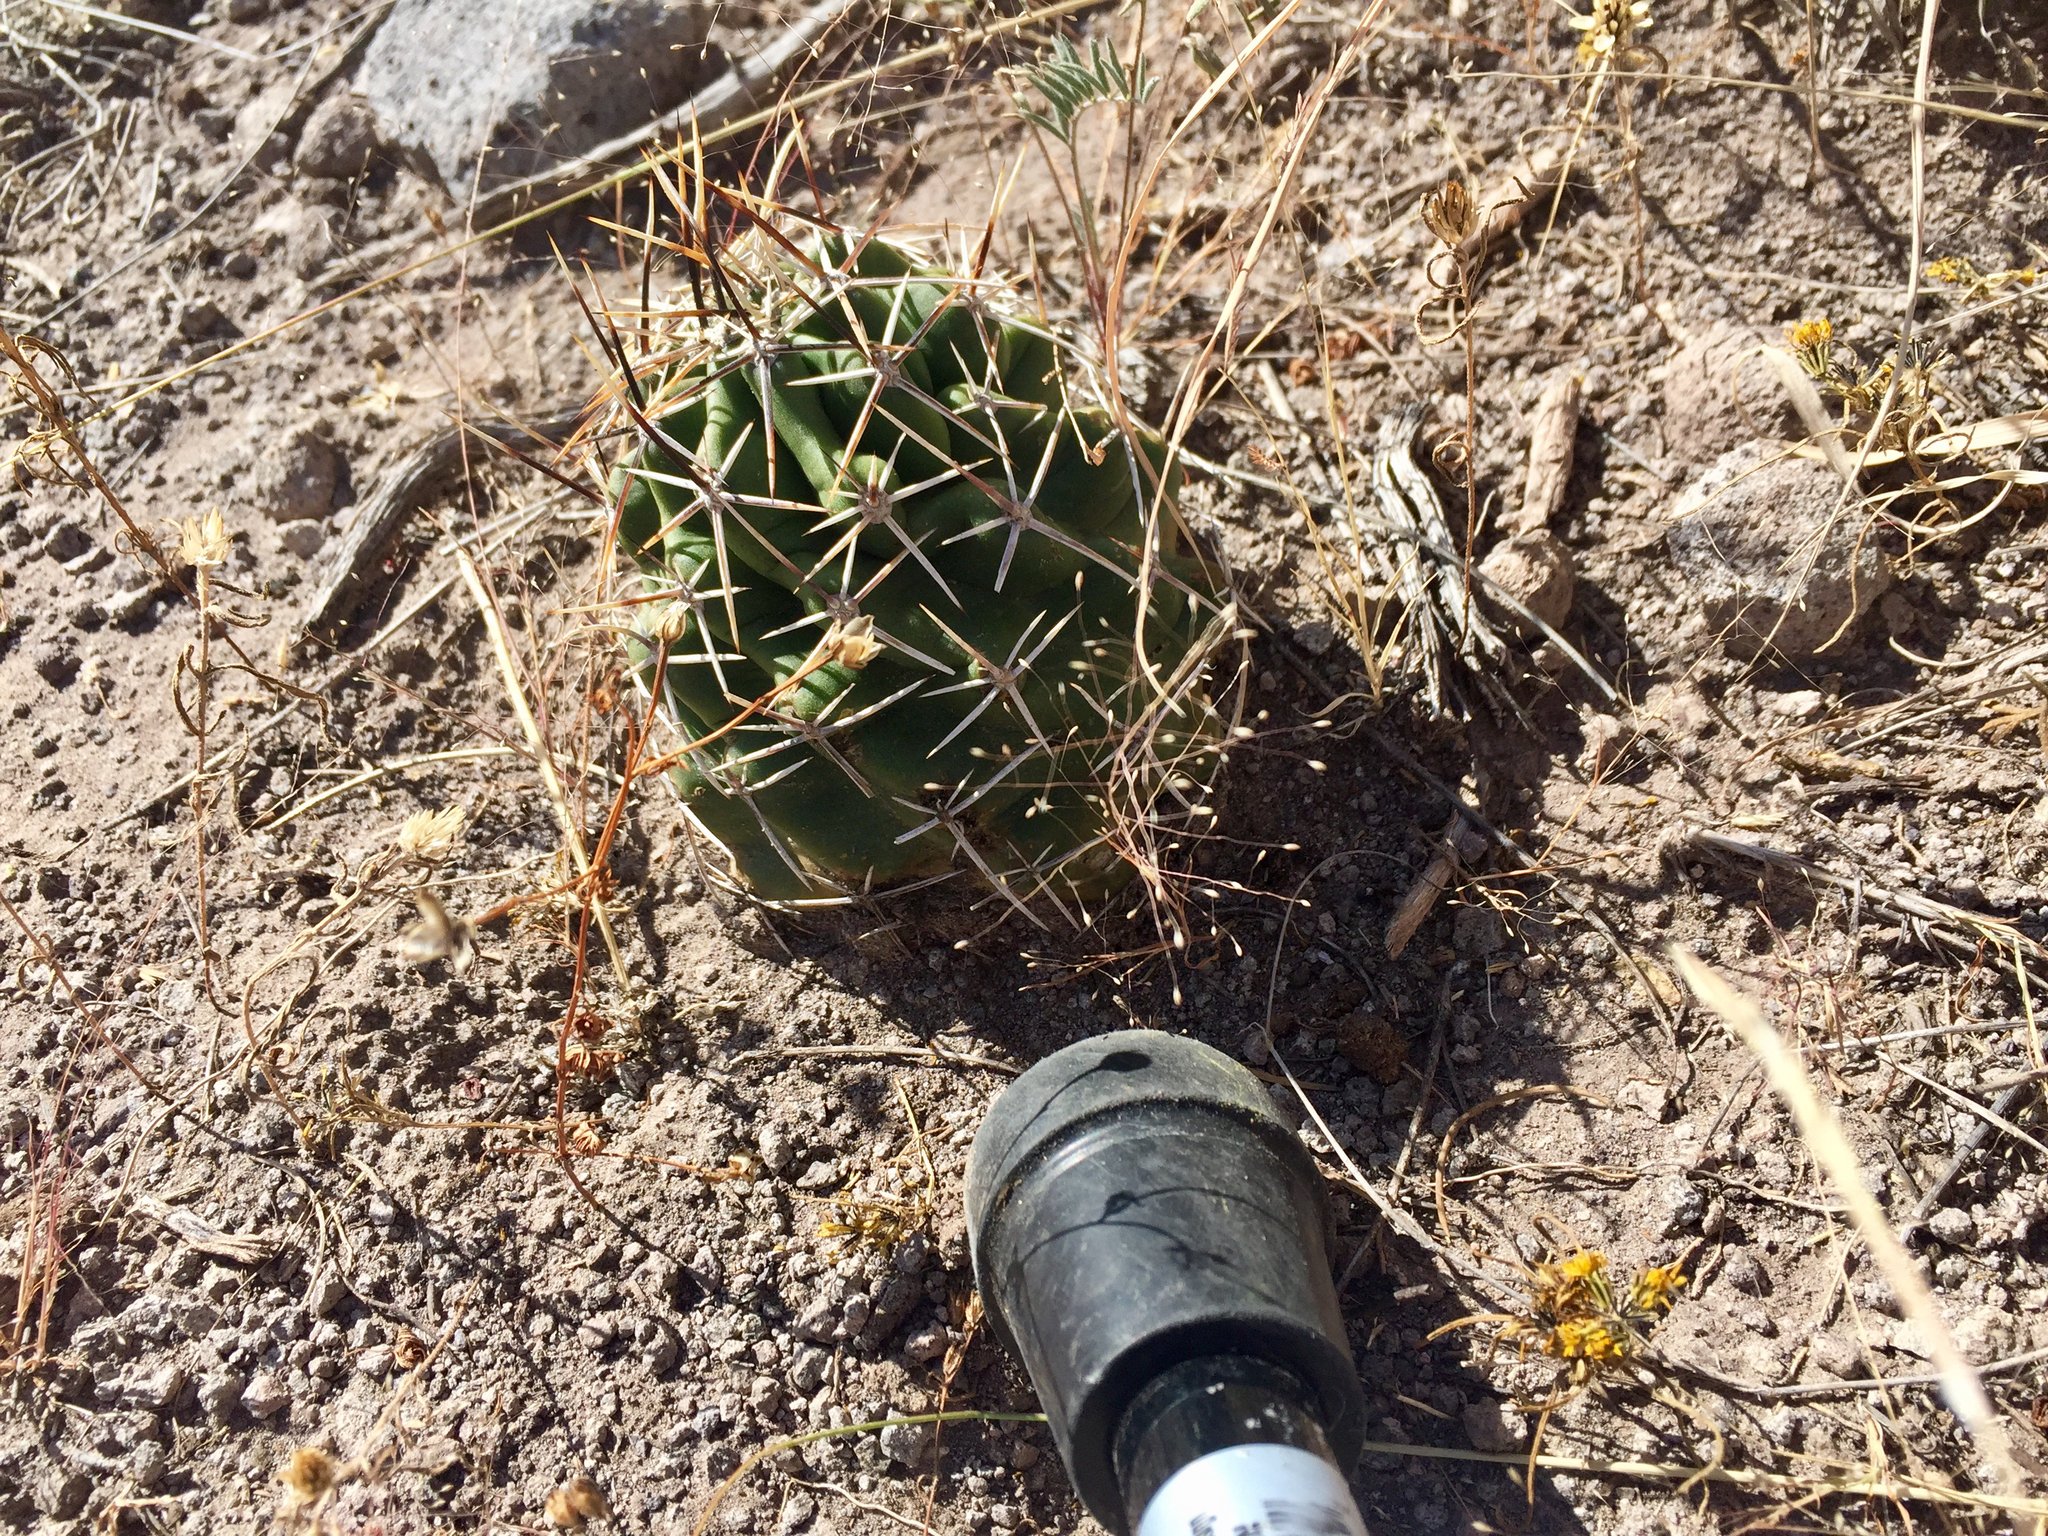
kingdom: Plantae
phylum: Tracheophyta
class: Magnoliopsida
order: Caryophyllales
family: Cactaceae
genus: Echinocereus
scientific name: Echinocereus fendleri
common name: Fendler's hedgehog cactus
